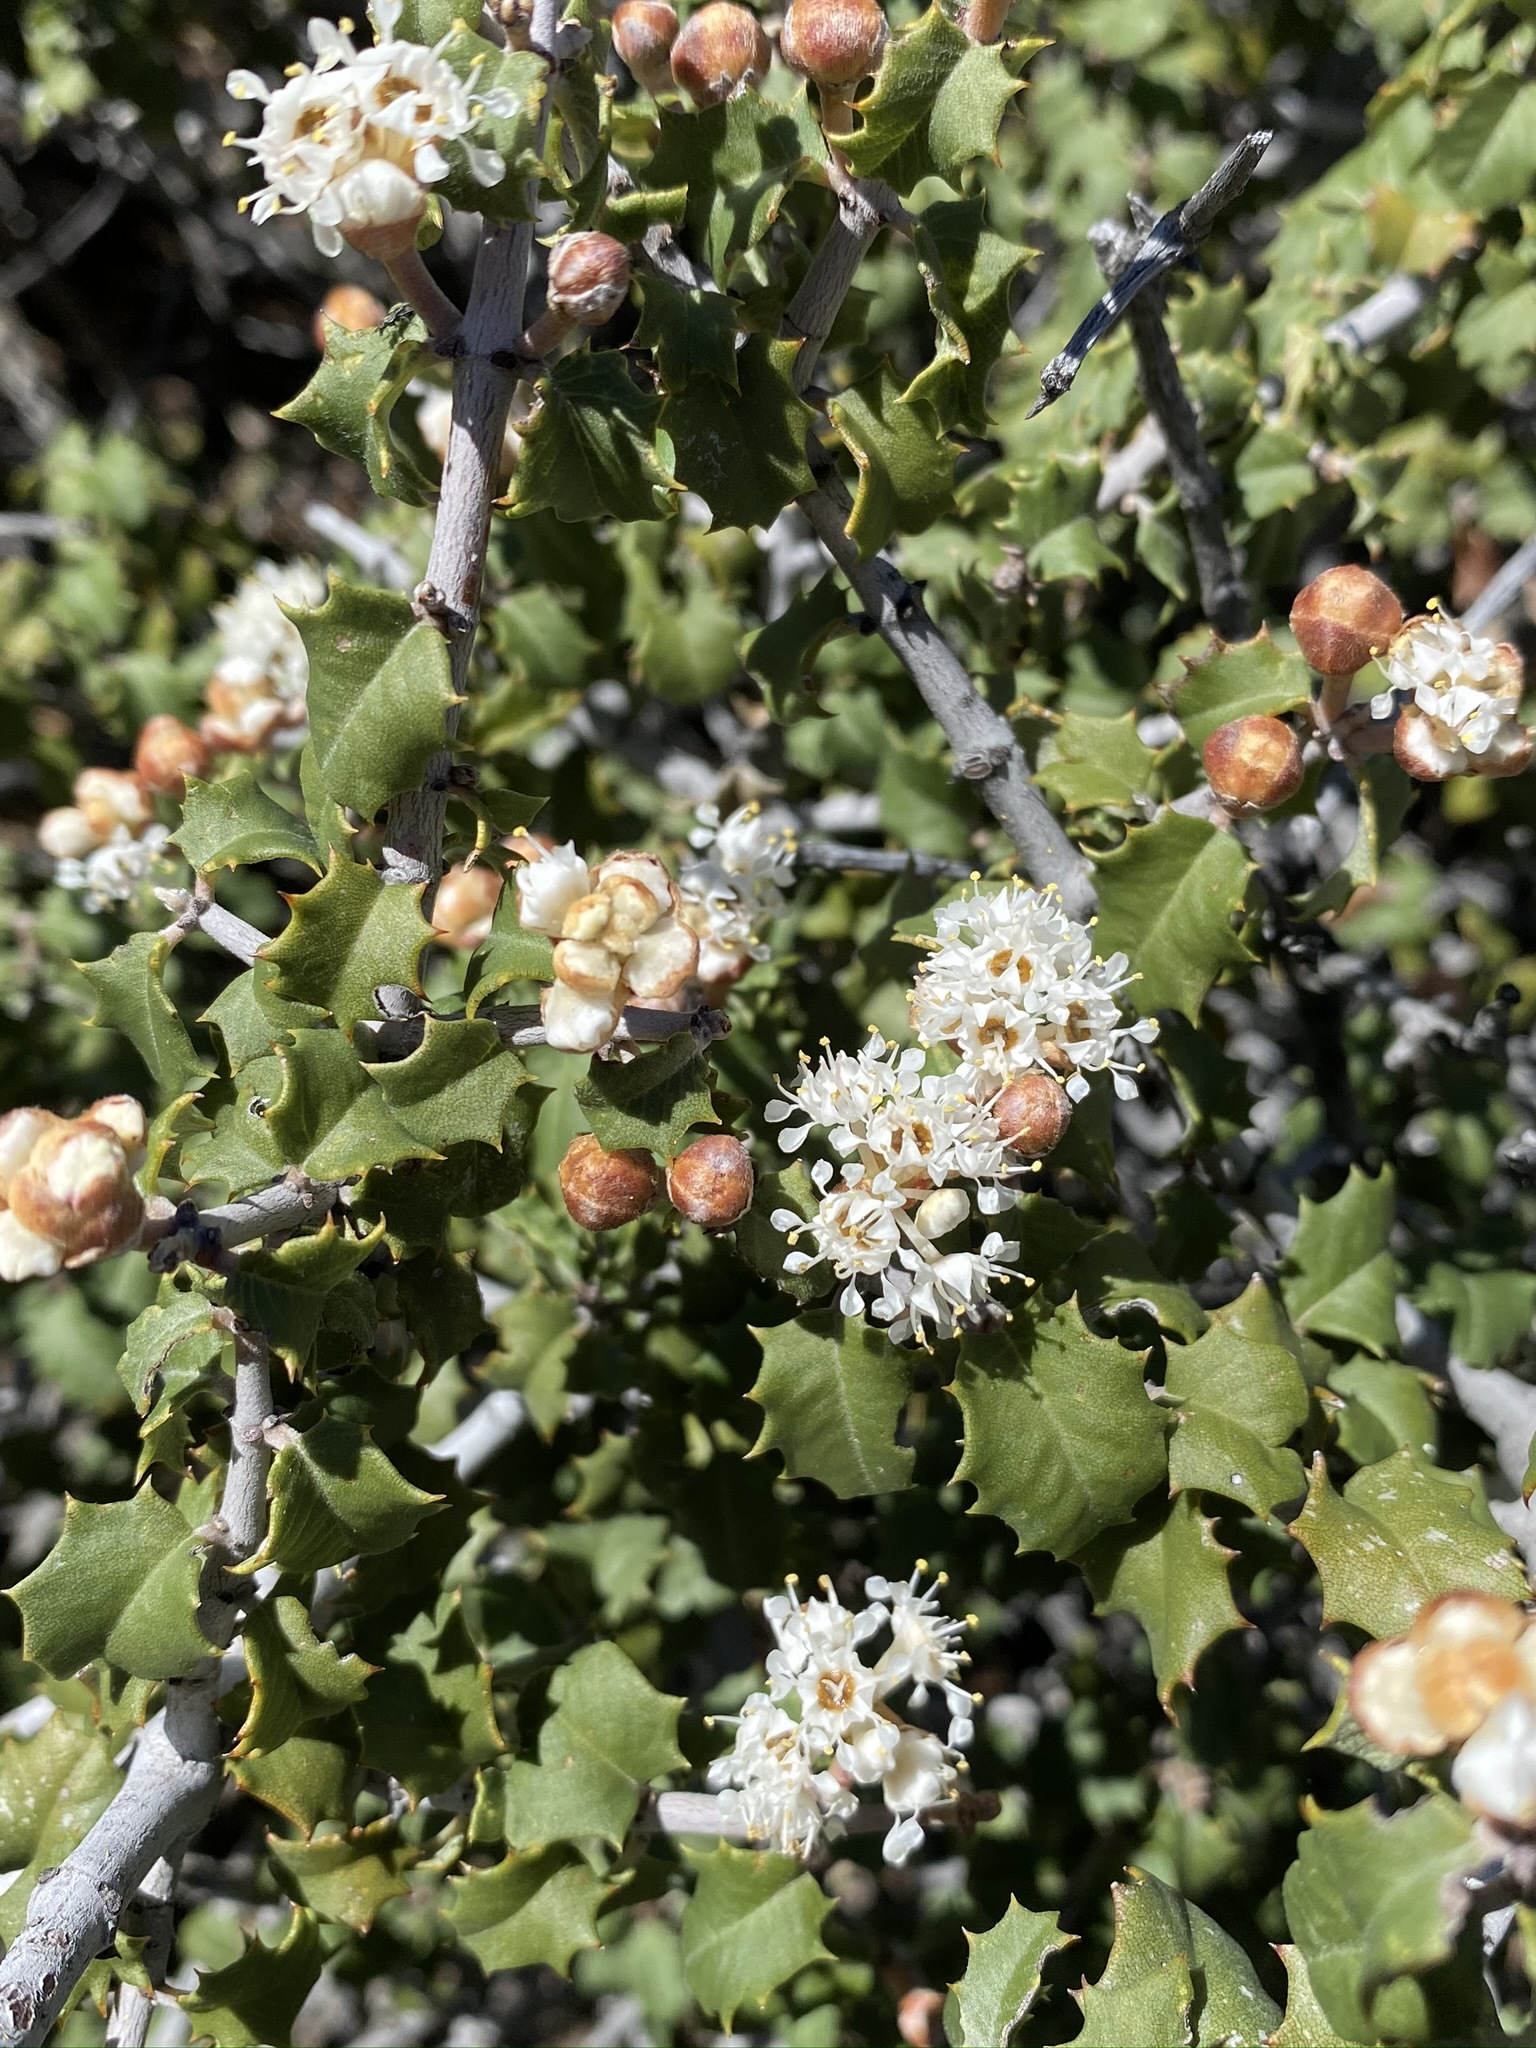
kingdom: Plantae
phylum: Tracheophyta
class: Magnoliopsida
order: Rosales
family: Rhamnaceae
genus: Ceanothus
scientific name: Ceanothus jepsonii
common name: Muskbrush
